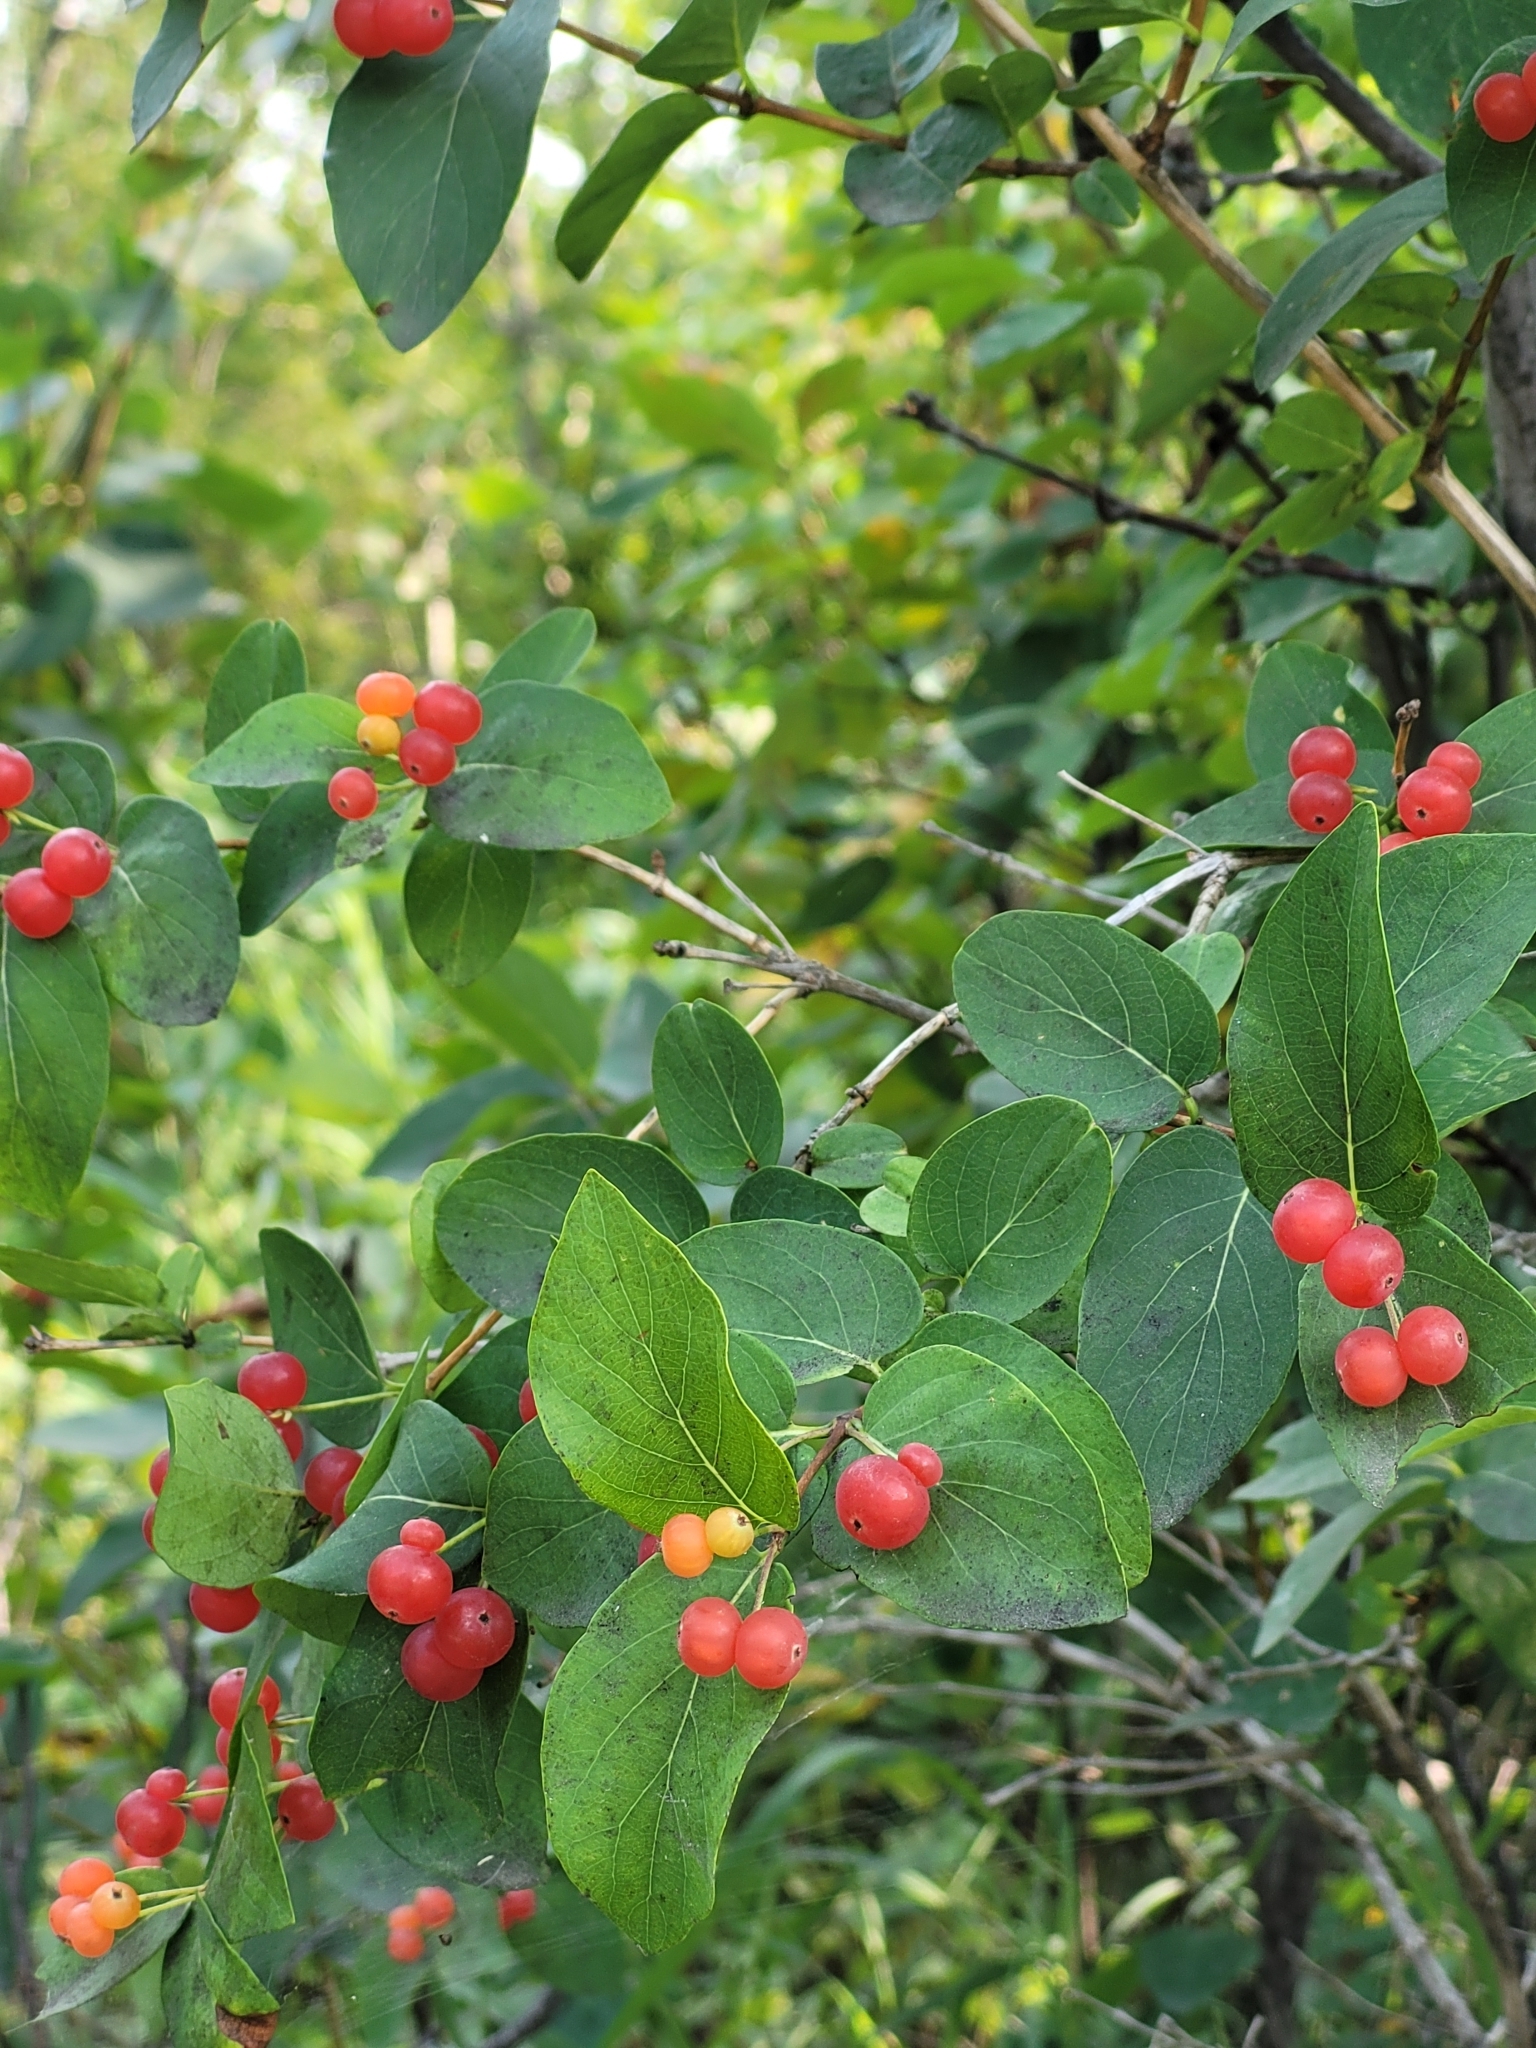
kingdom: Plantae
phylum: Tracheophyta
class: Magnoliopsida
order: Dipsacales
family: Caprifoliaceae
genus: Lonicera
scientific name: Lonicera tatarica
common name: Tatarian honeysuckle
